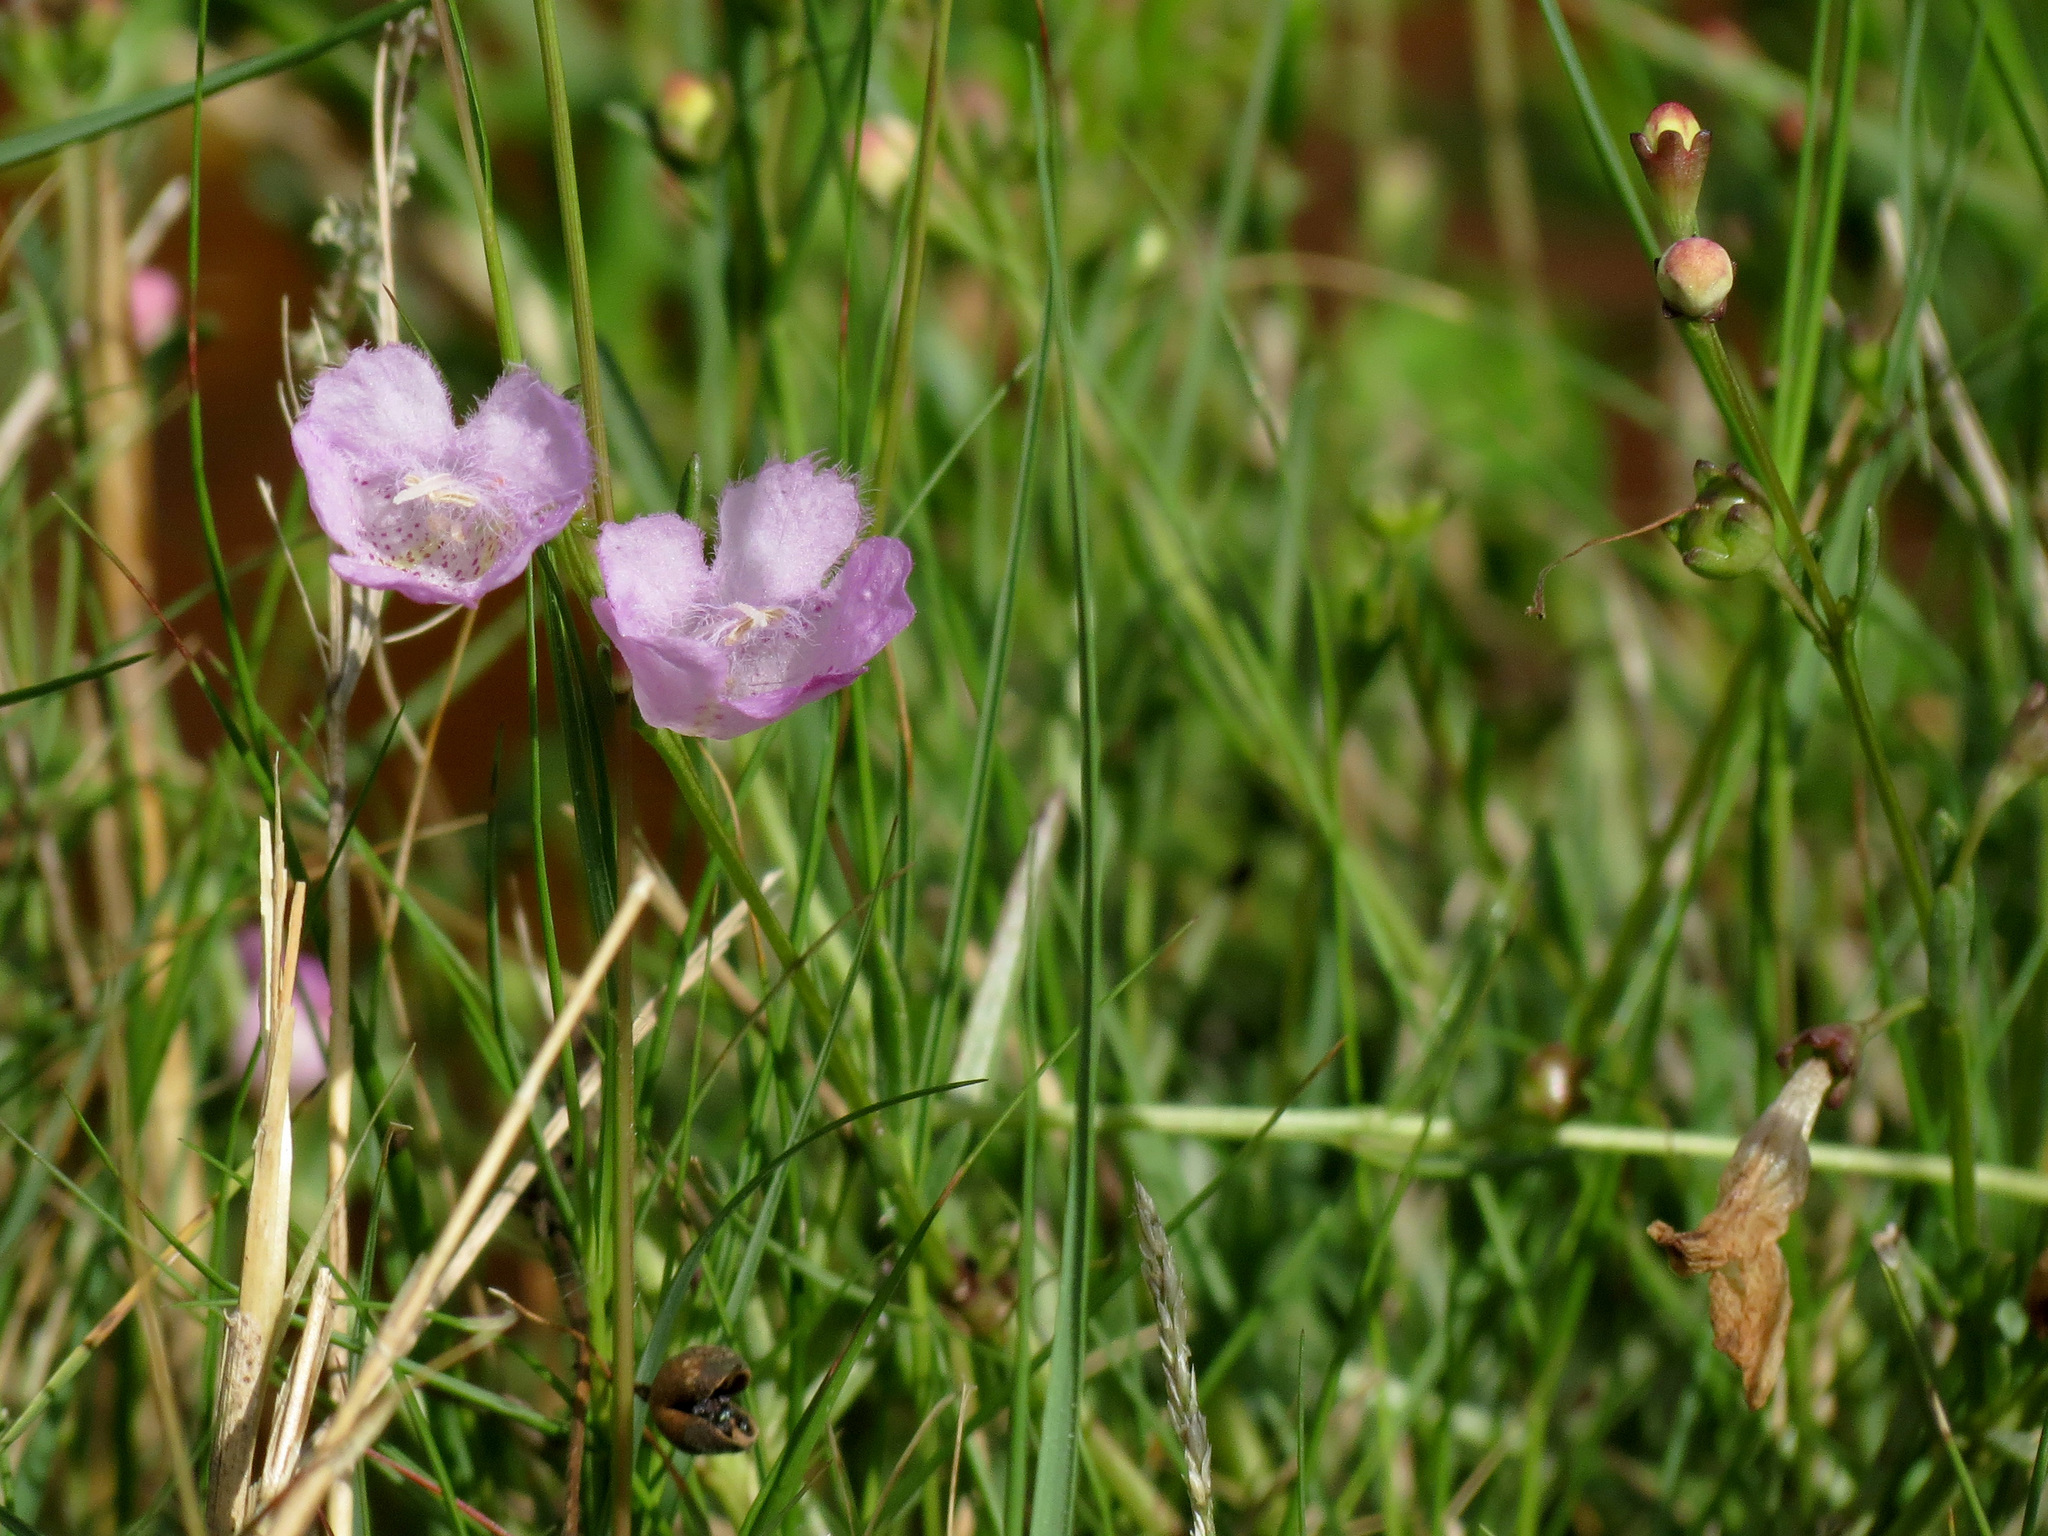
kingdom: Plantae
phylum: Tracheophyta
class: Magnoliopsida
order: Lamiales
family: Orobanchaceae
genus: Agalinis
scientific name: Agalinis fasciculata
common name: Beach false foxglove
